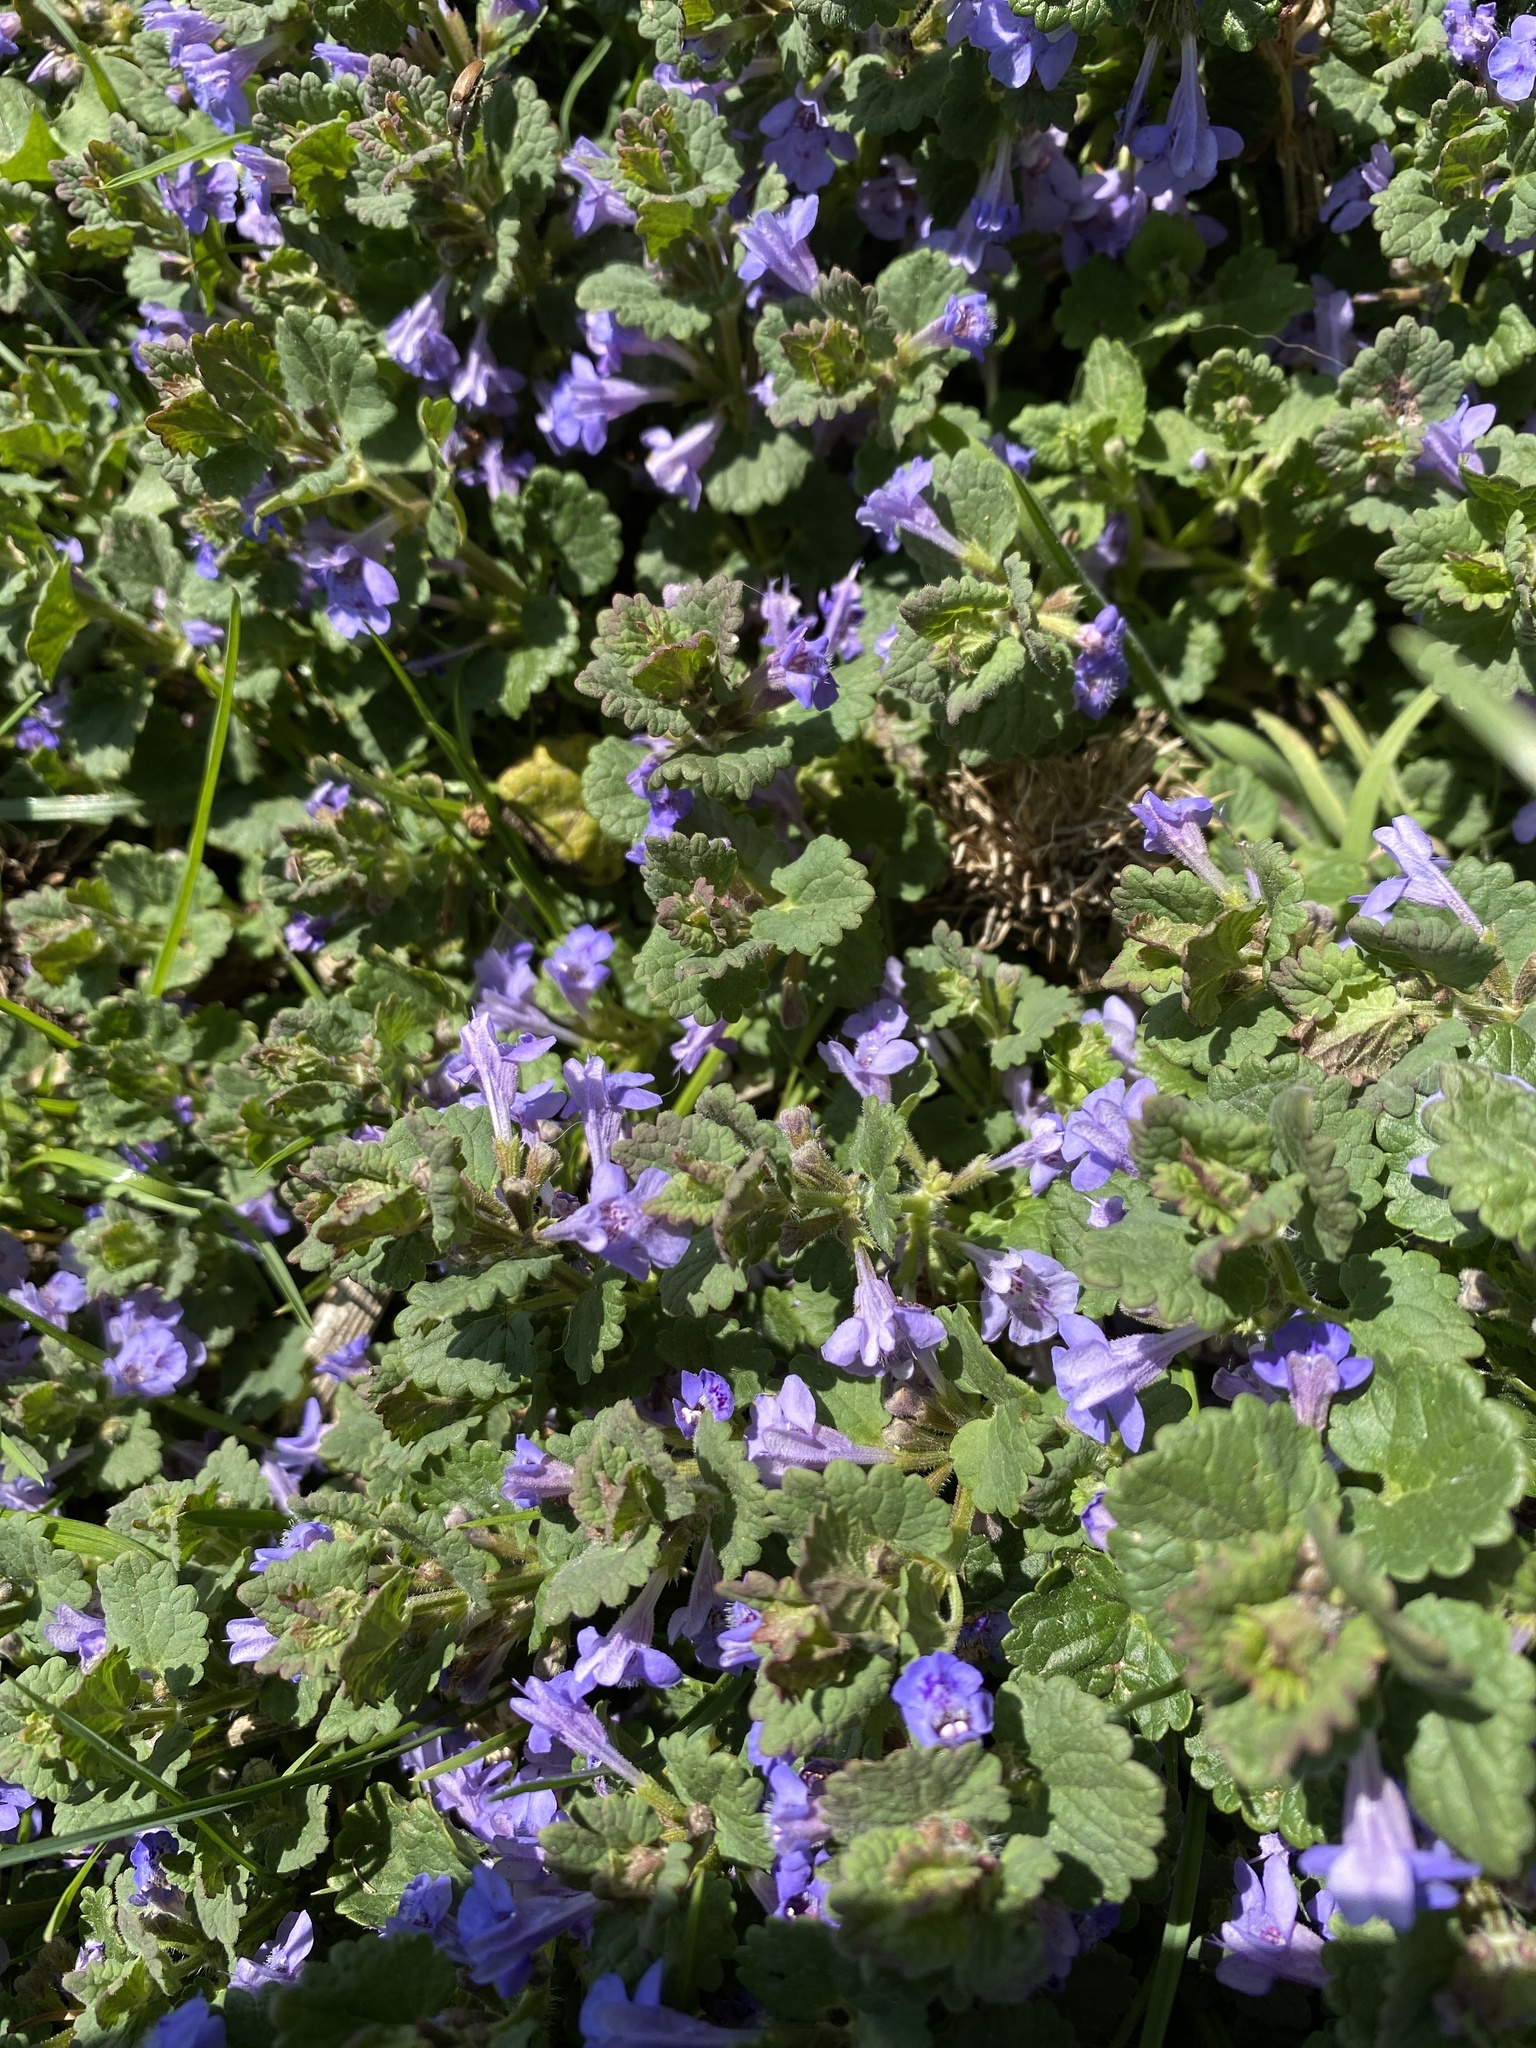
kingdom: Plantae
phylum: Tracheophyta
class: Magnoliopsida
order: Lamiales
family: Lamiaceae
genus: Glechoma
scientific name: Glechoma hederacea
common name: Ground ivy
